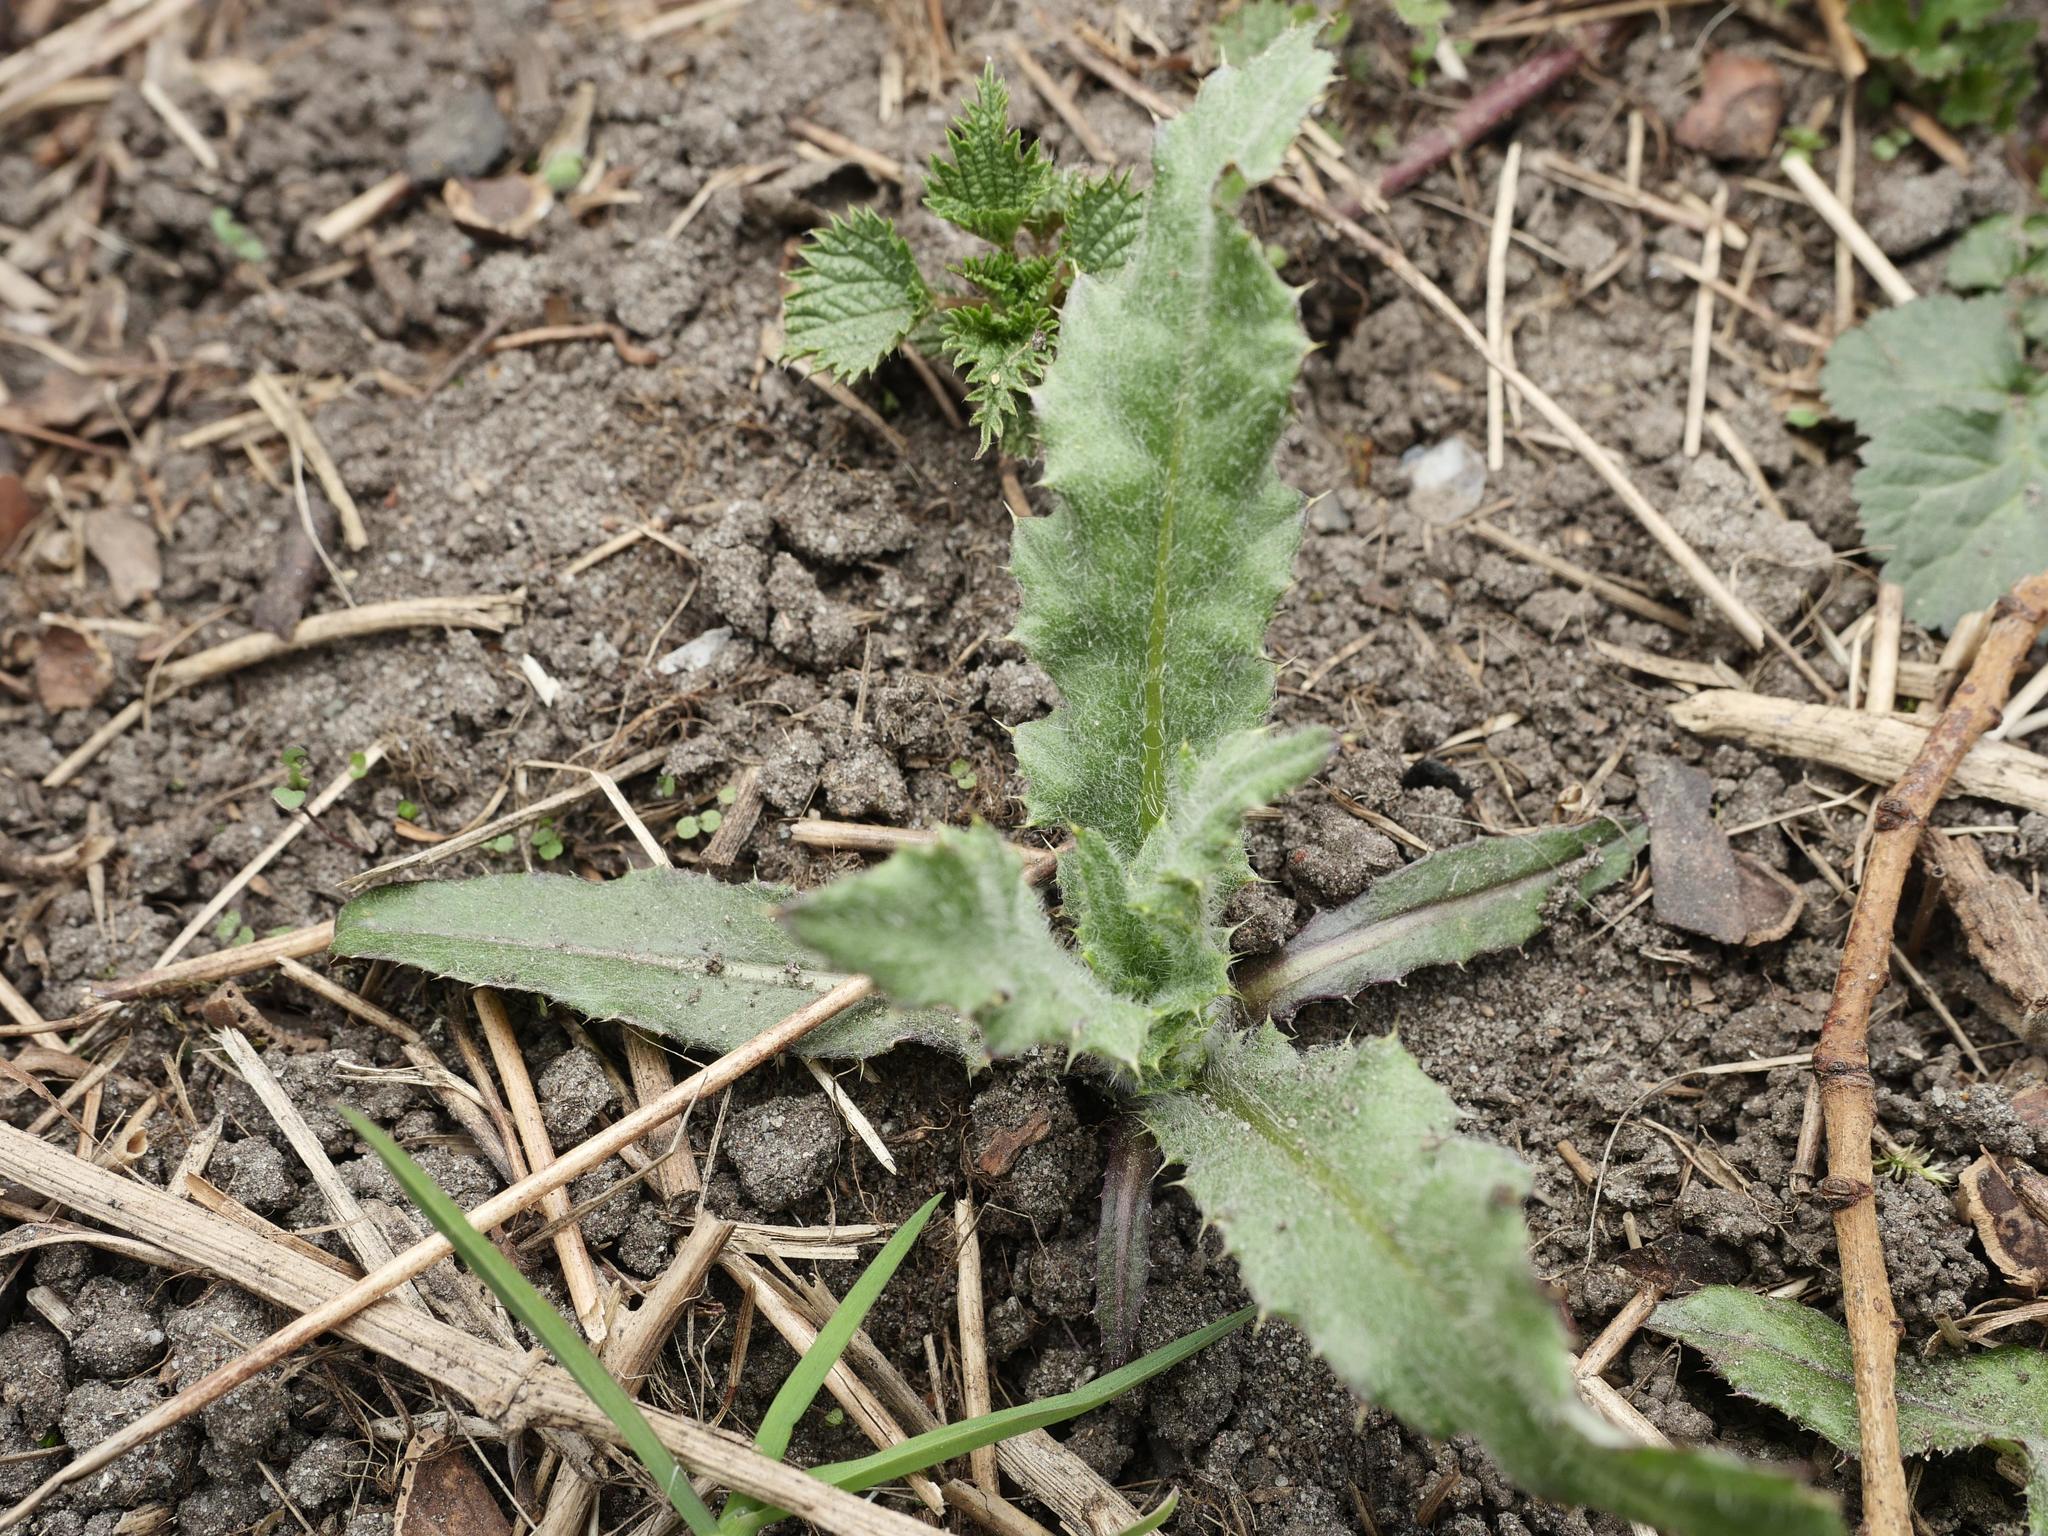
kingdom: Plantae
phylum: Tracheophyta
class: Magnoliopsida
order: Asterales
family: Asteraceae
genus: Cirsium
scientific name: Cirsium arvense
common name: Creeping thistle
